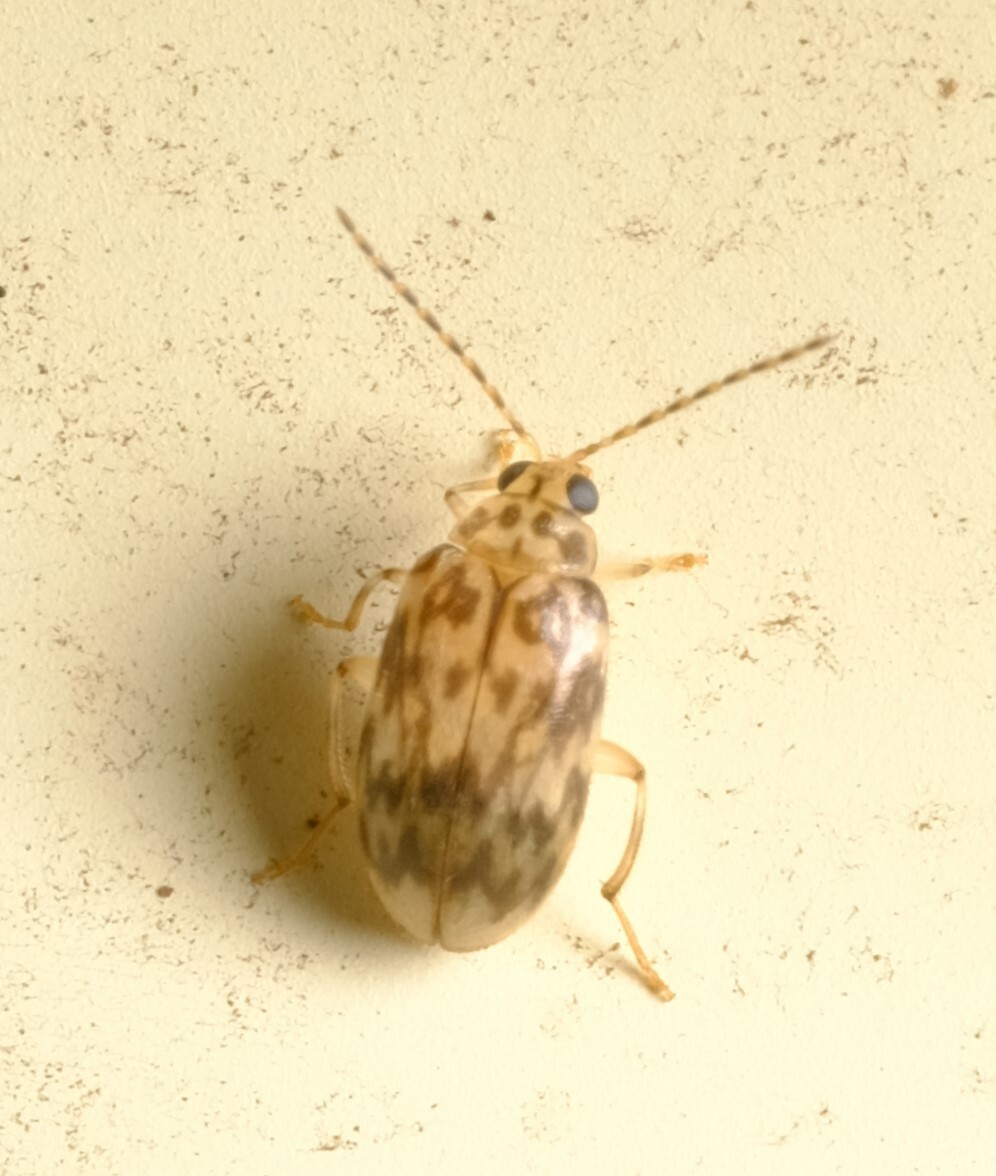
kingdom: Animalia
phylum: Arthropoda
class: Insecta
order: Coleoptera
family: Chrysomelidae
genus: Candezea
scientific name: Candezea
